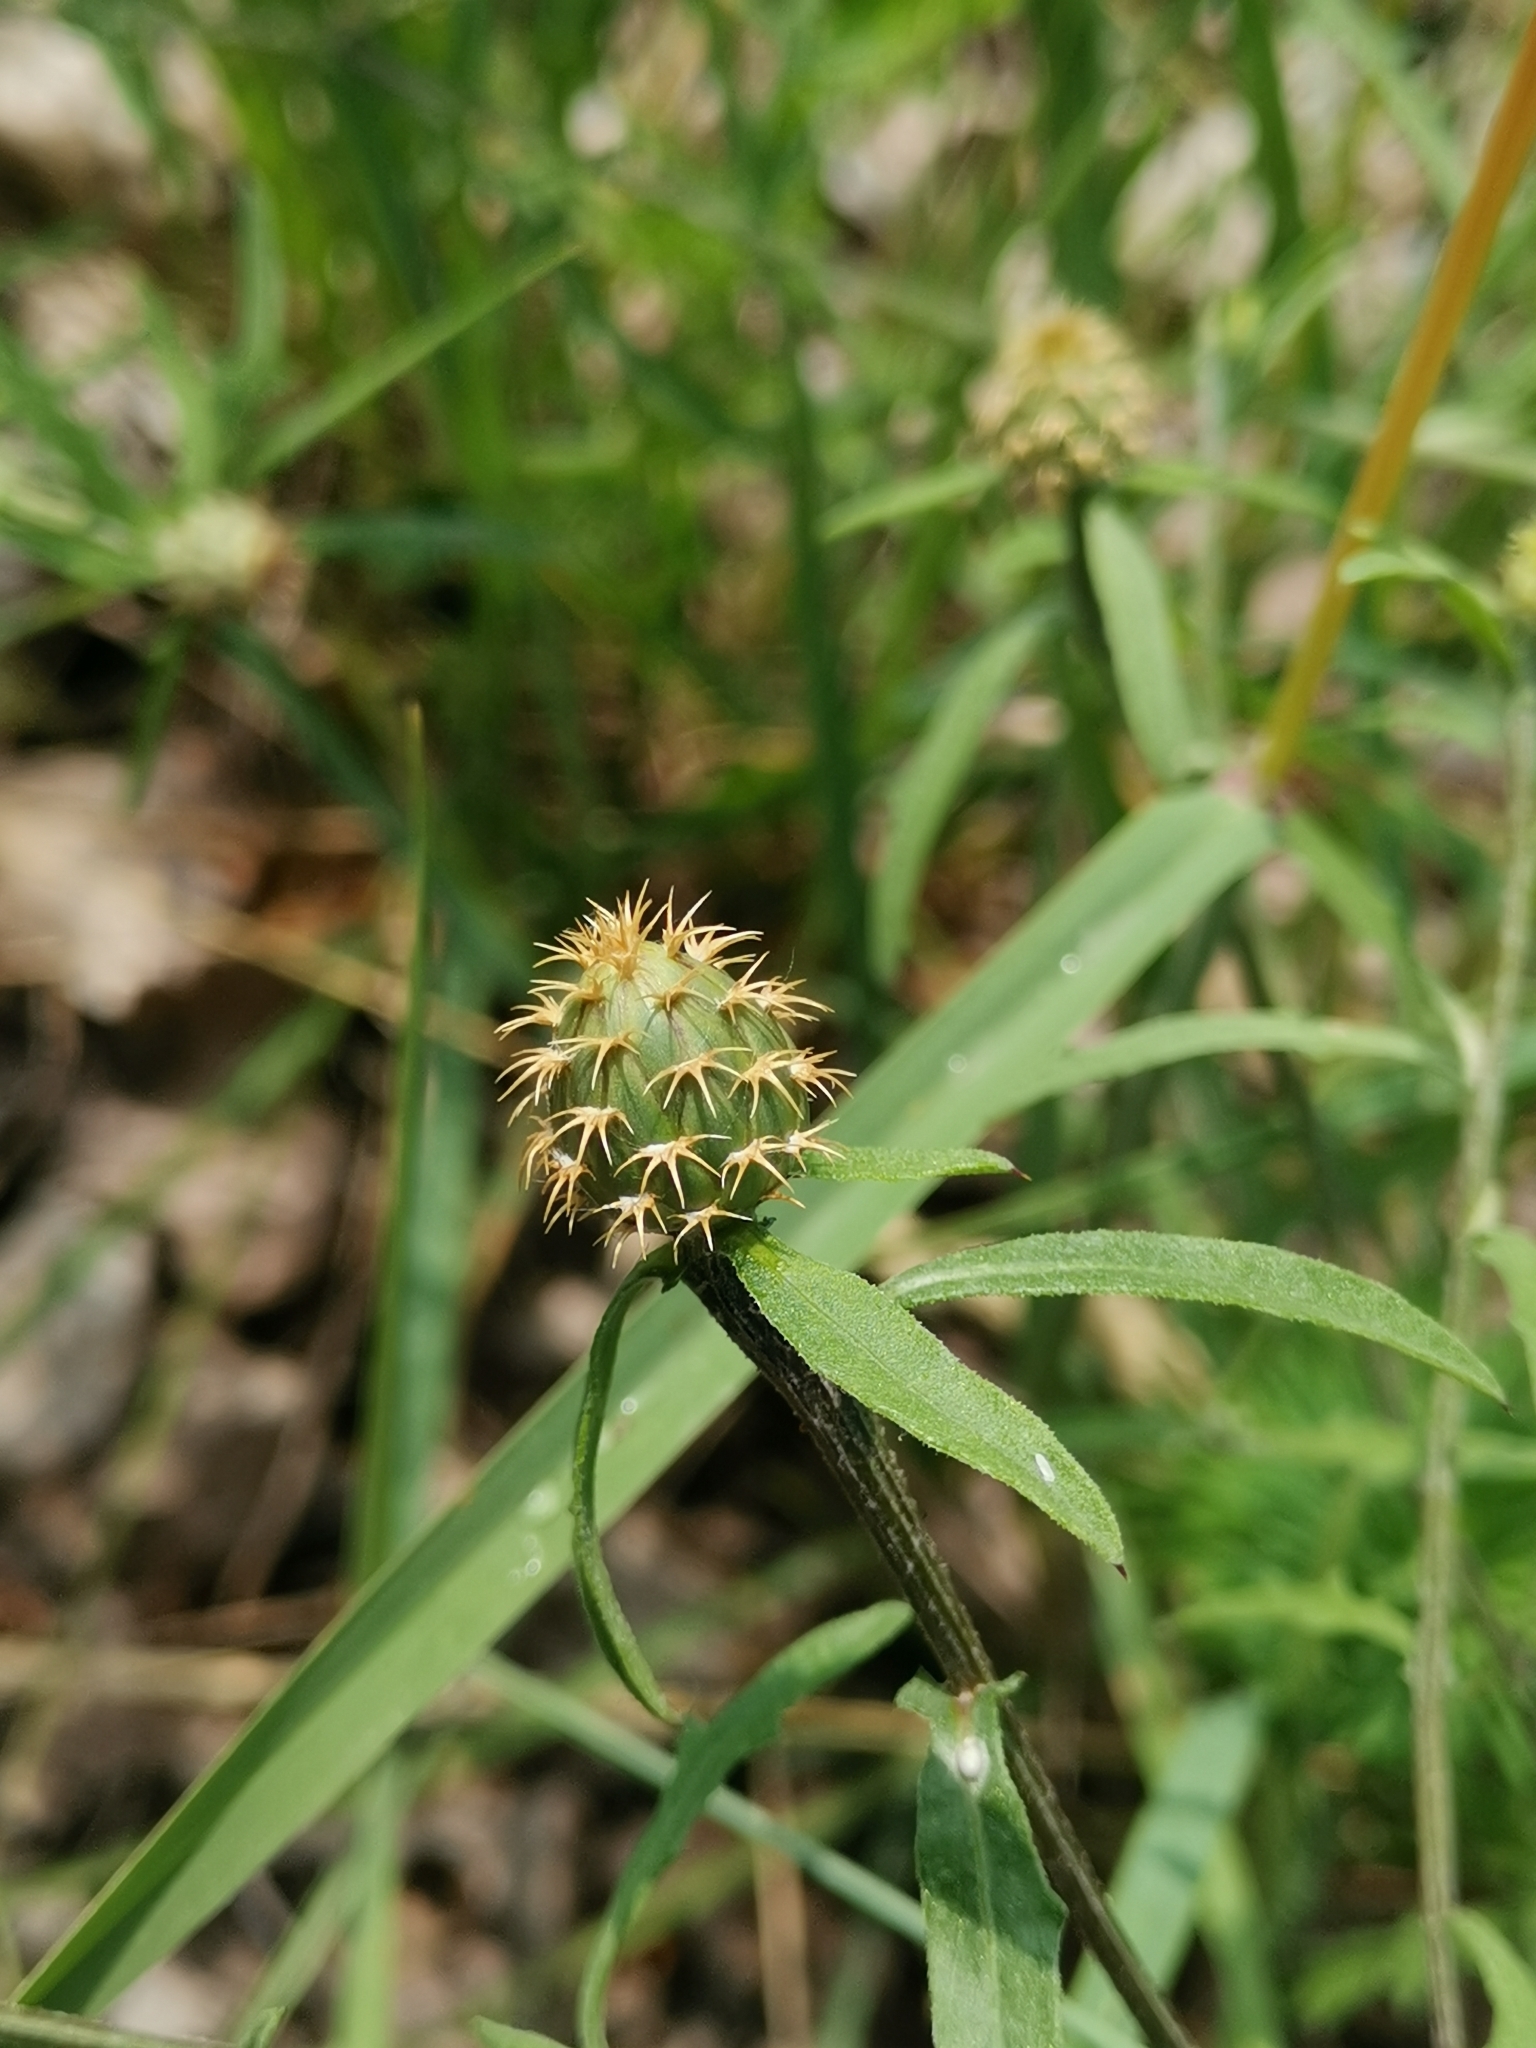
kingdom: Plantae
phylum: Tracheophyta
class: Magnoliopsida
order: Asterales
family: Asteraceae
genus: Centaurea
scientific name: Centaurea aspera
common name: Rough star-thistle
